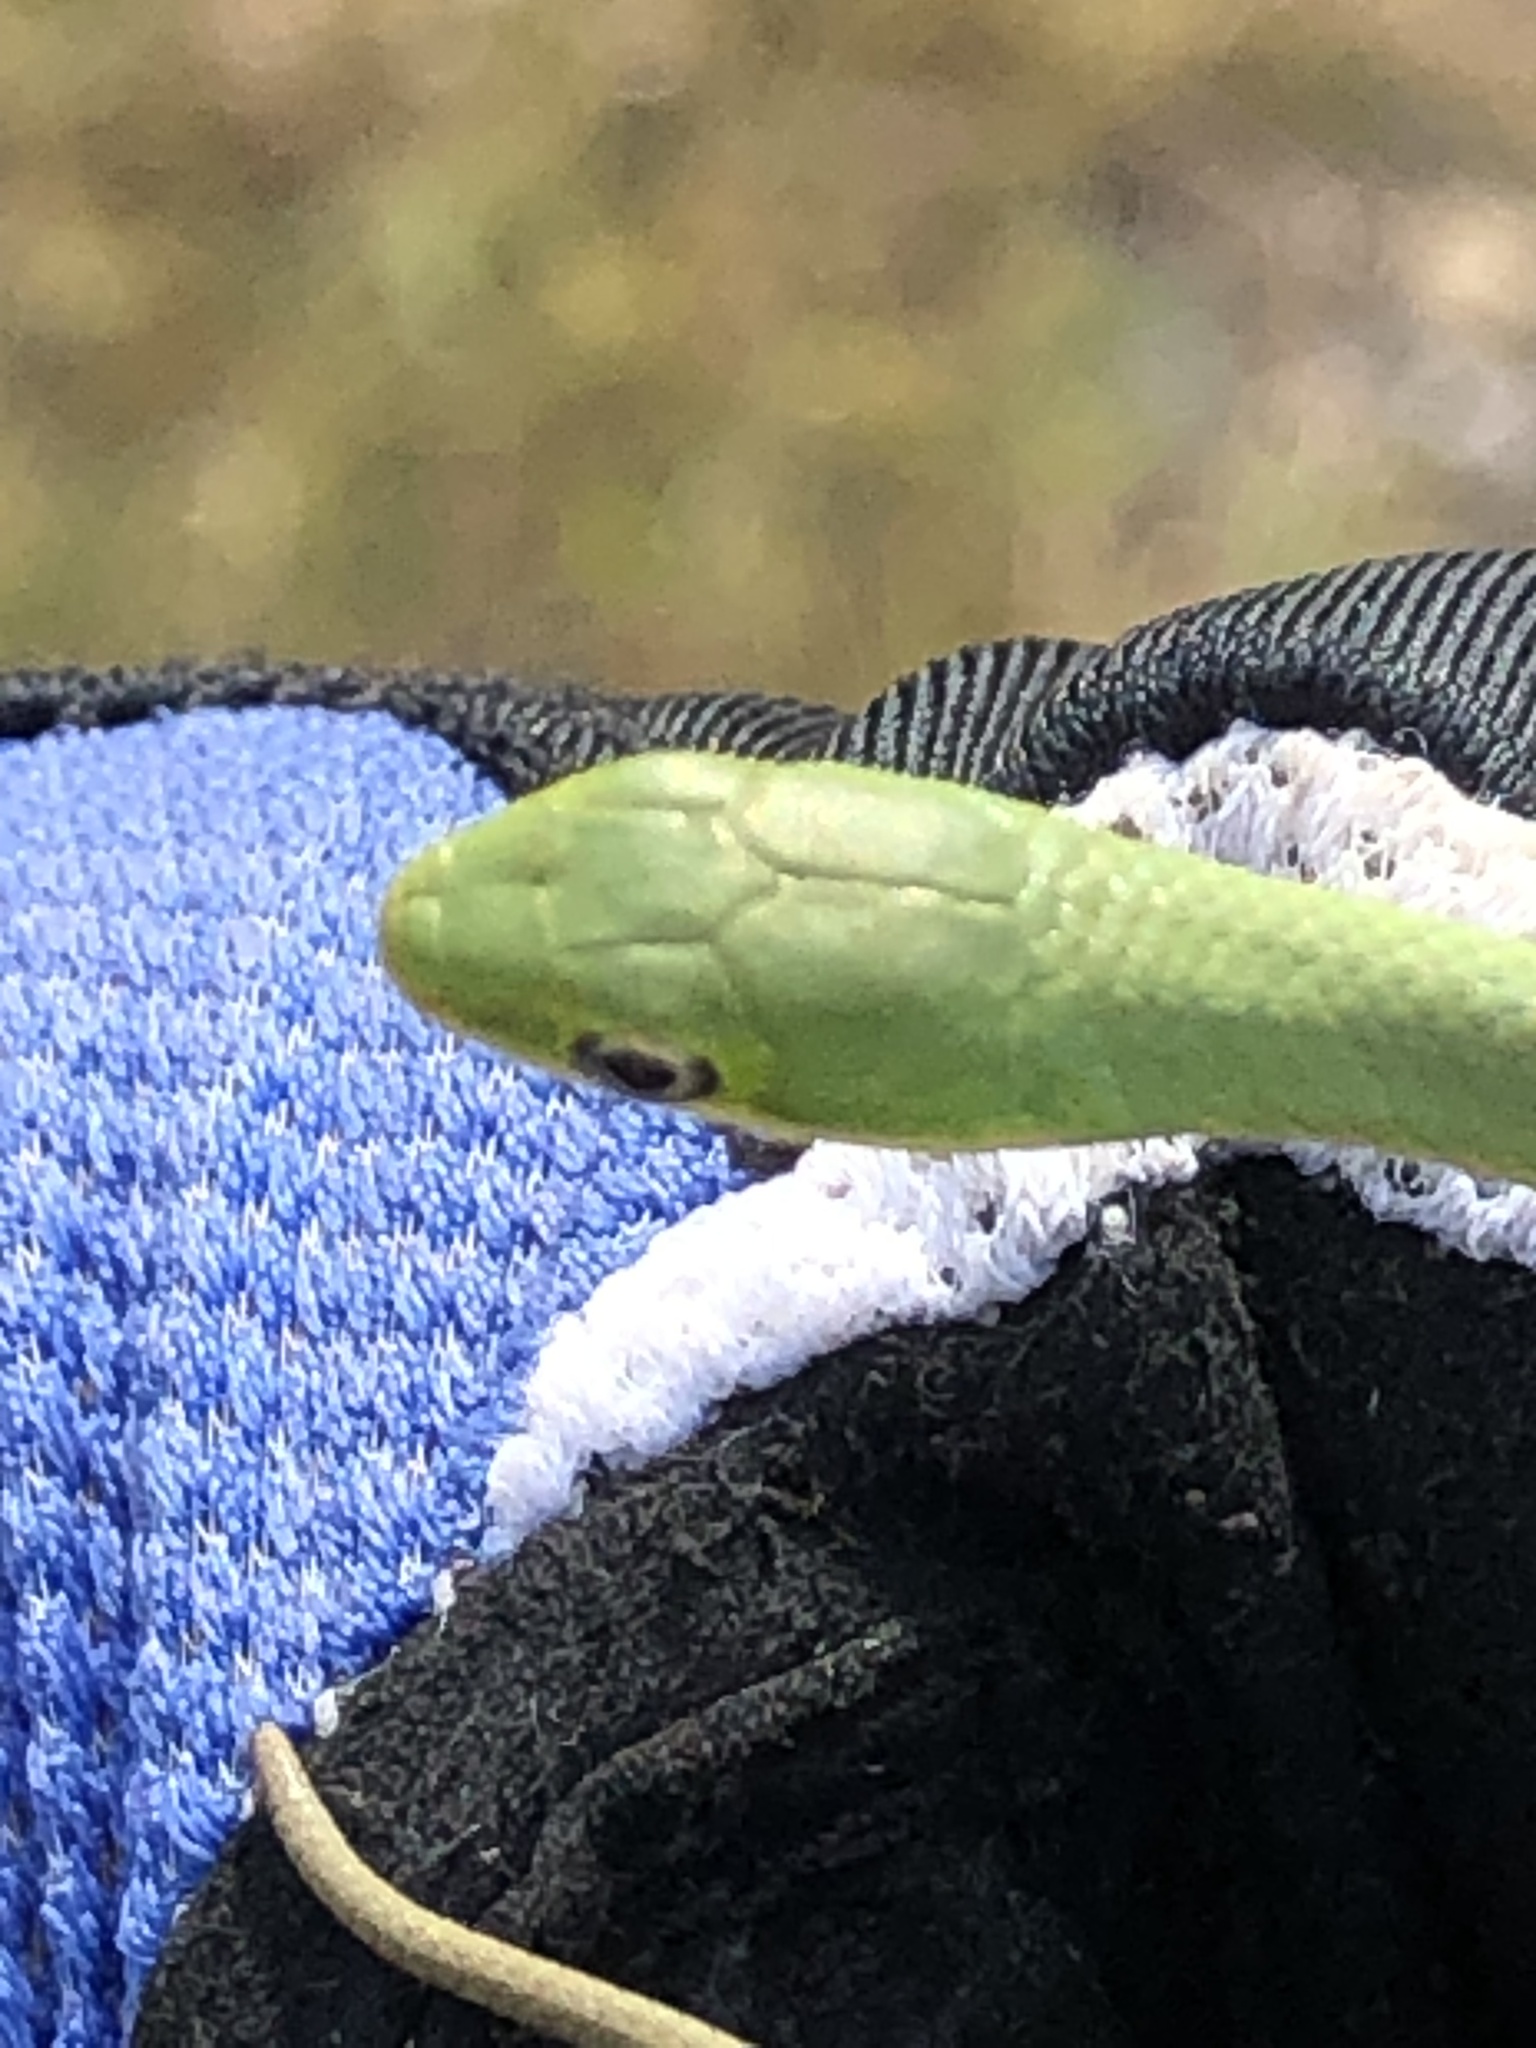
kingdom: Animalia
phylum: Chordata
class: Squamata
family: Colubridae
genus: Opheodrys
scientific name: Opheodrys aestivus
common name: Rough greensnake
